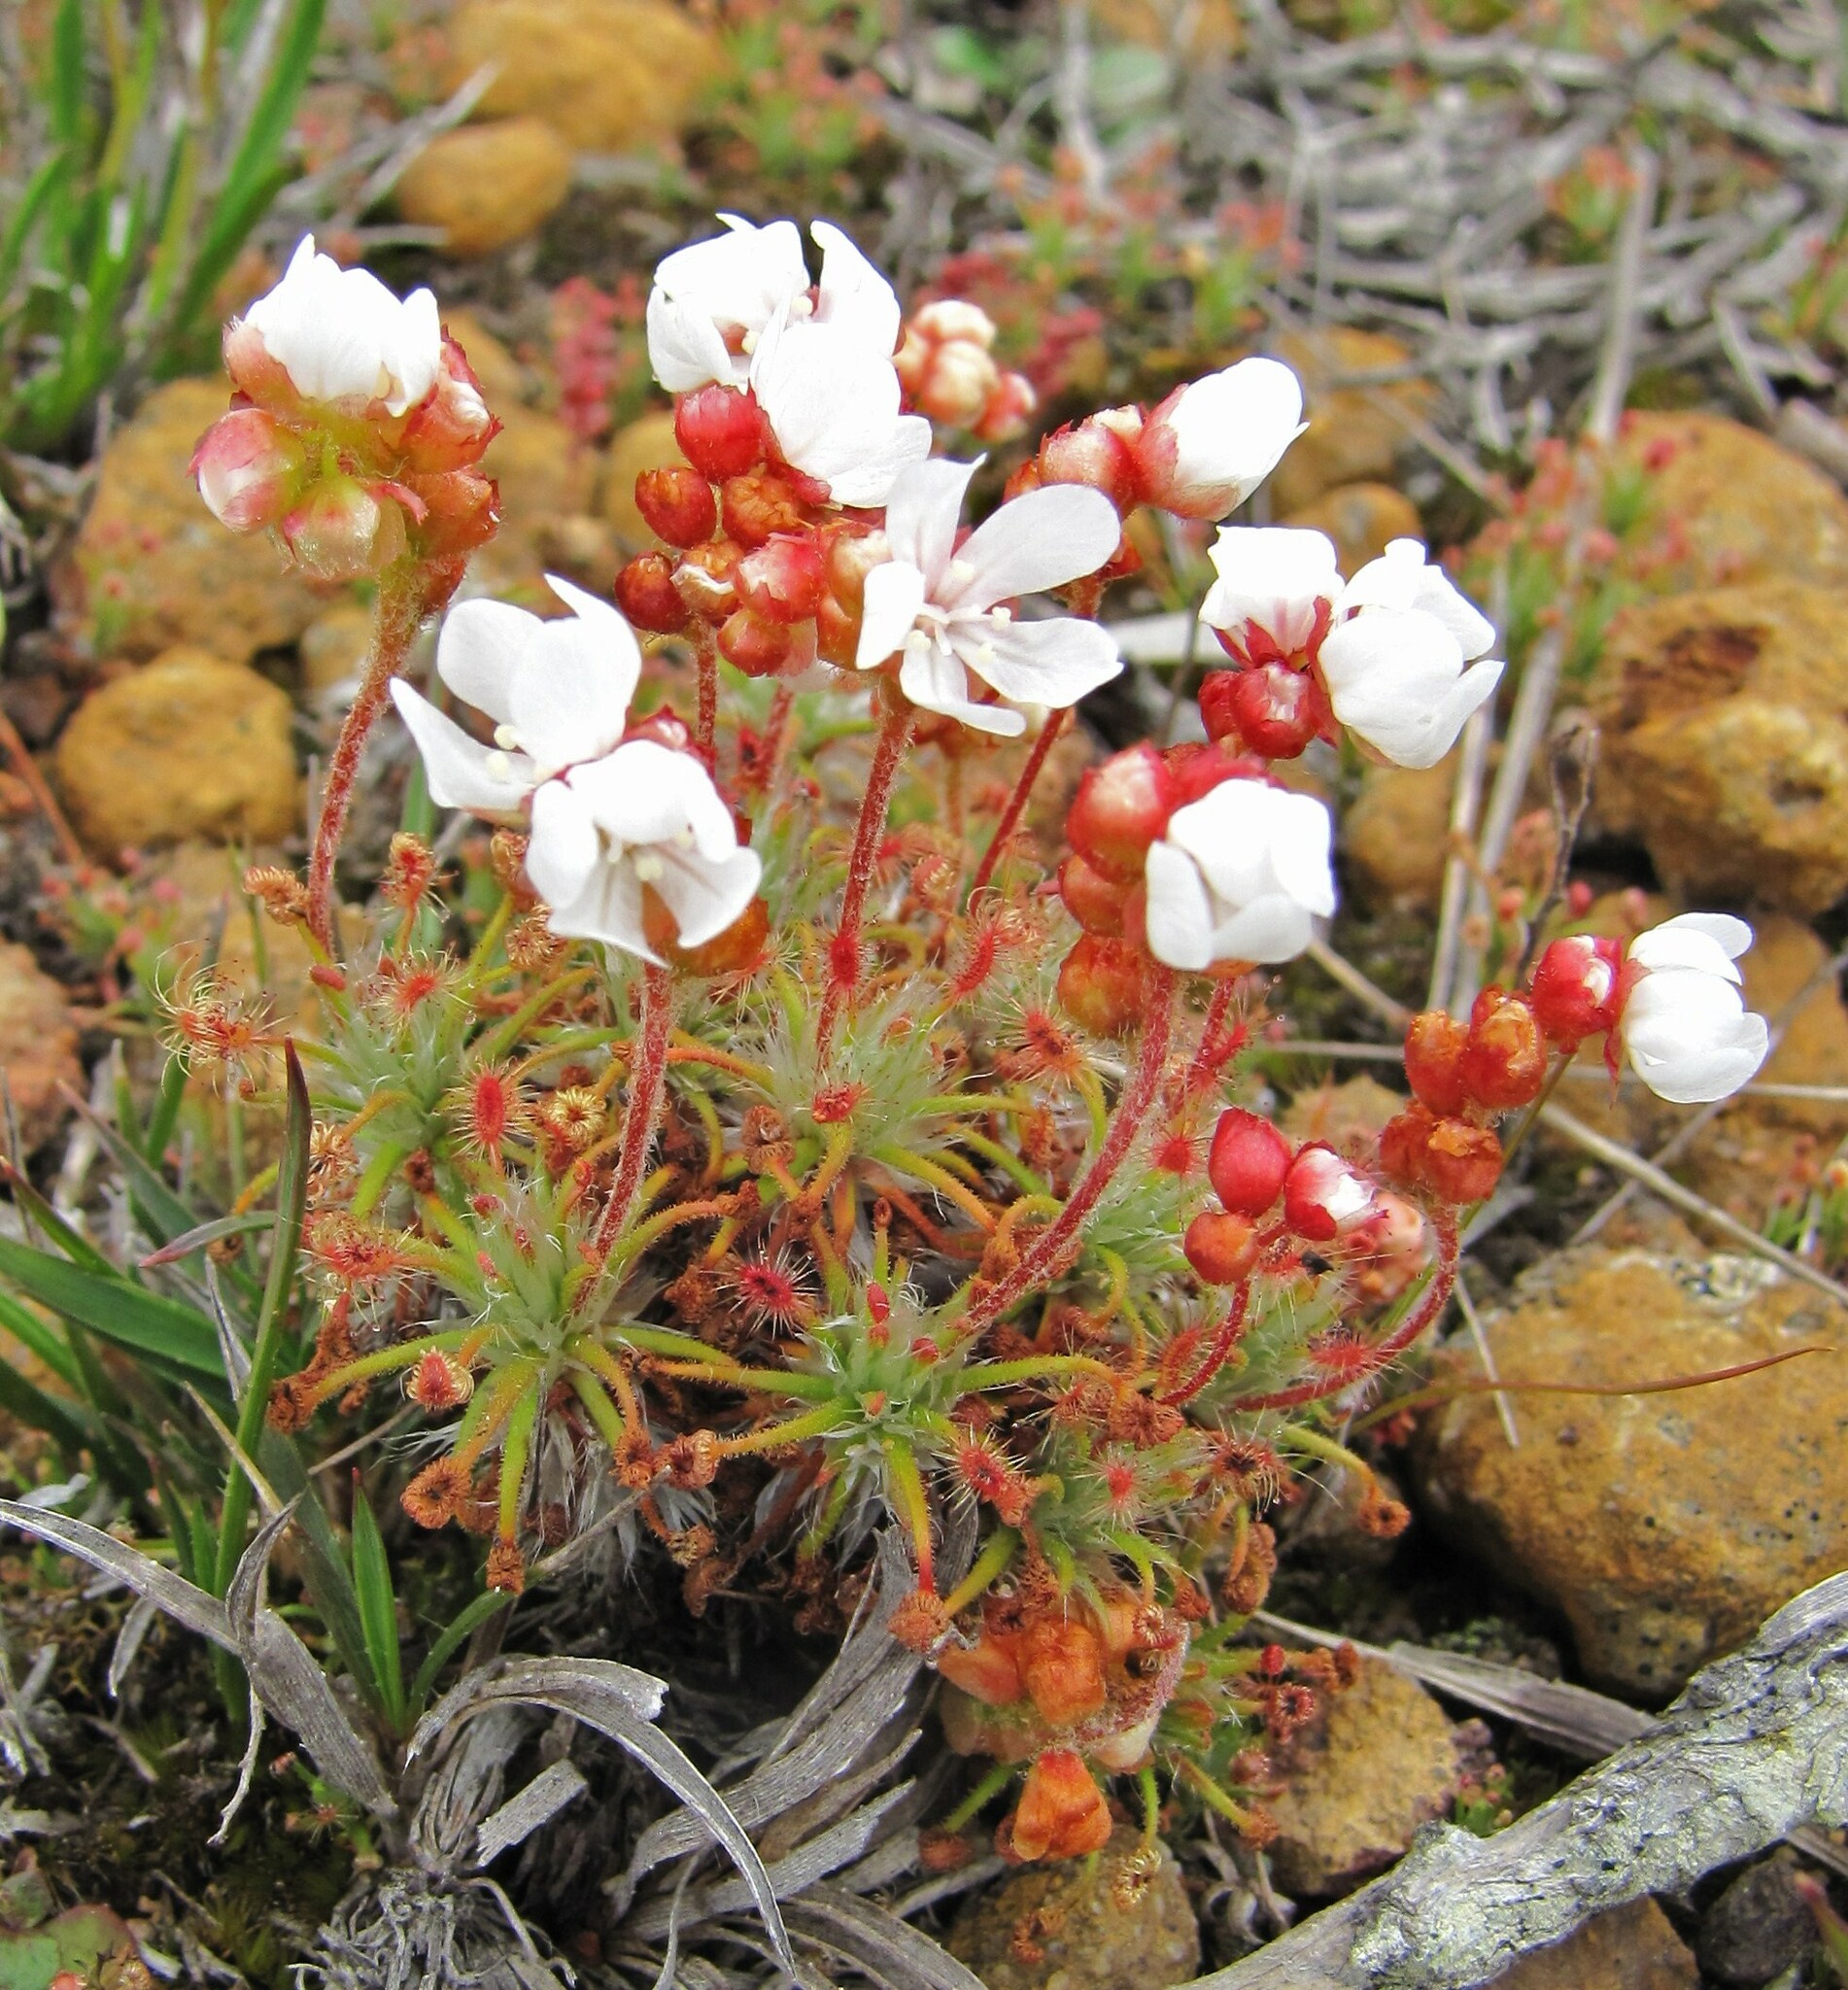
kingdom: Plantae
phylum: Tracheophyta
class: Magnoliopsida
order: Caryophyllales
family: Droseraceae
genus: Drosera
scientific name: Drosera scorpioides
